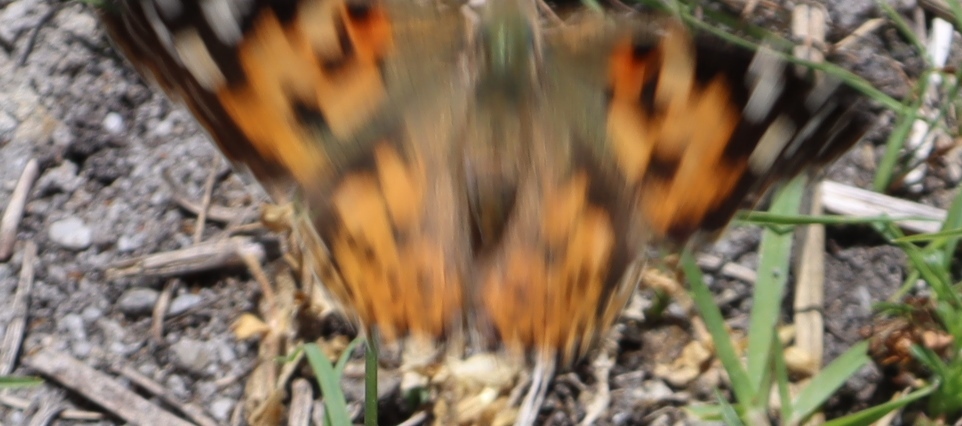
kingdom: Animalia
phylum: Arthropoda
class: Insecta
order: Lepidoptera
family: Nymphalidae
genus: Vanessa
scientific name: Vanessa cardui
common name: Painted lady
